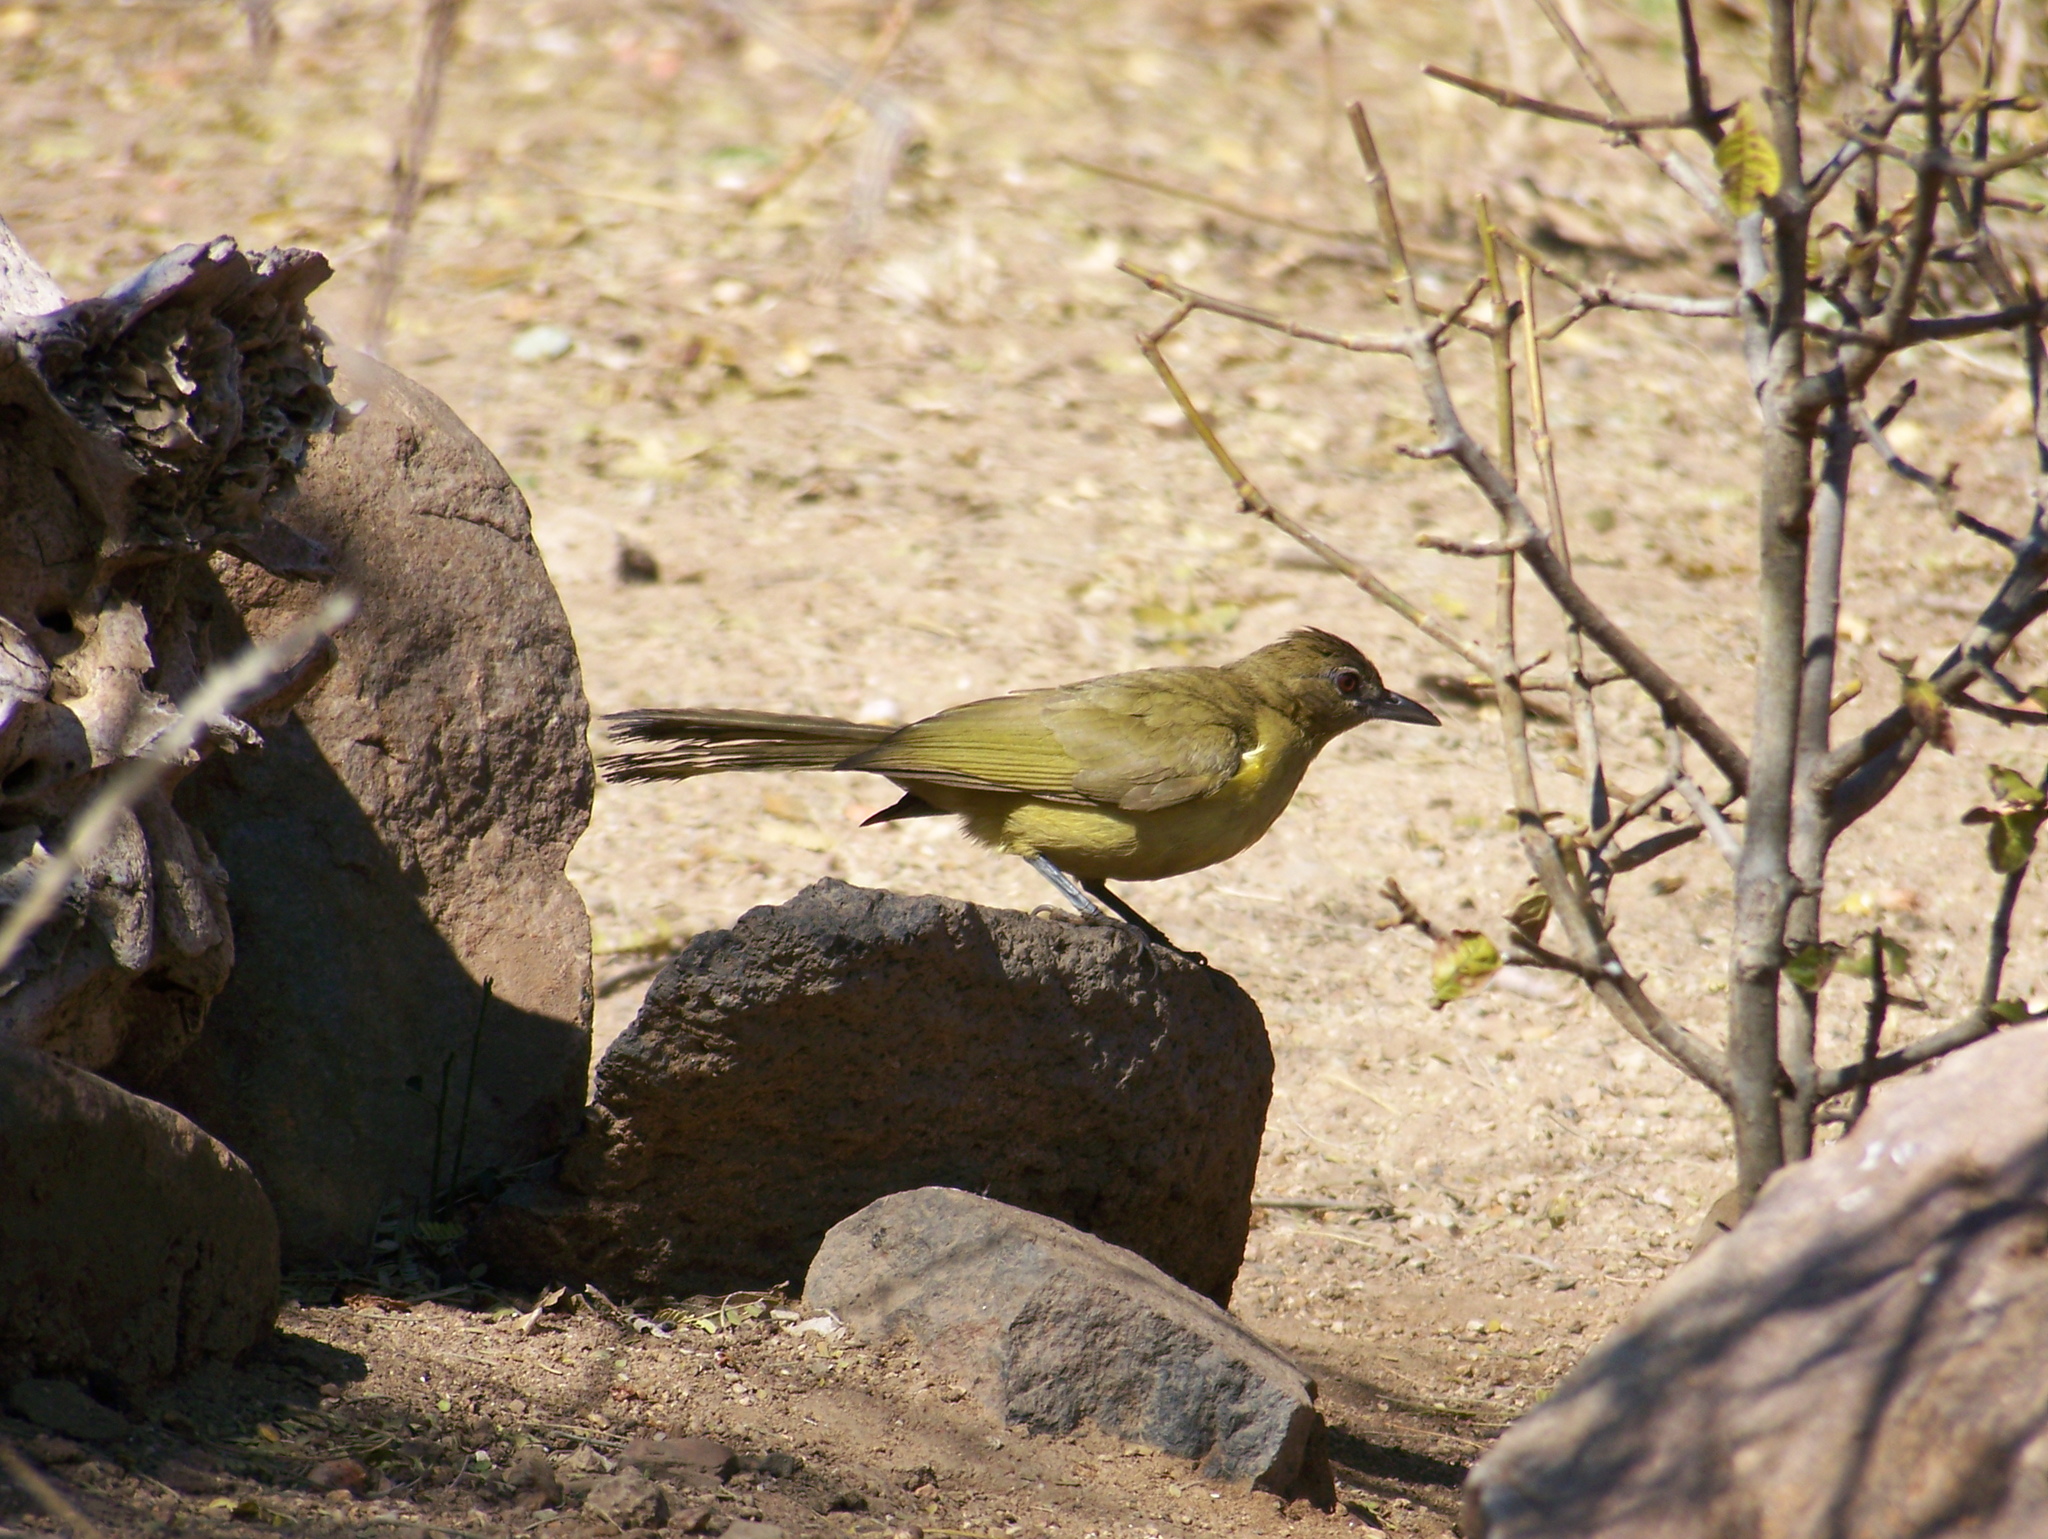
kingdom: Animalia
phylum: Chordata
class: Aves
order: Passeriformes
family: Pycnonotidae
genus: Chlorocichla
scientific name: Chlorocichla flaviventris
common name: Yellow-bellied greenbul
